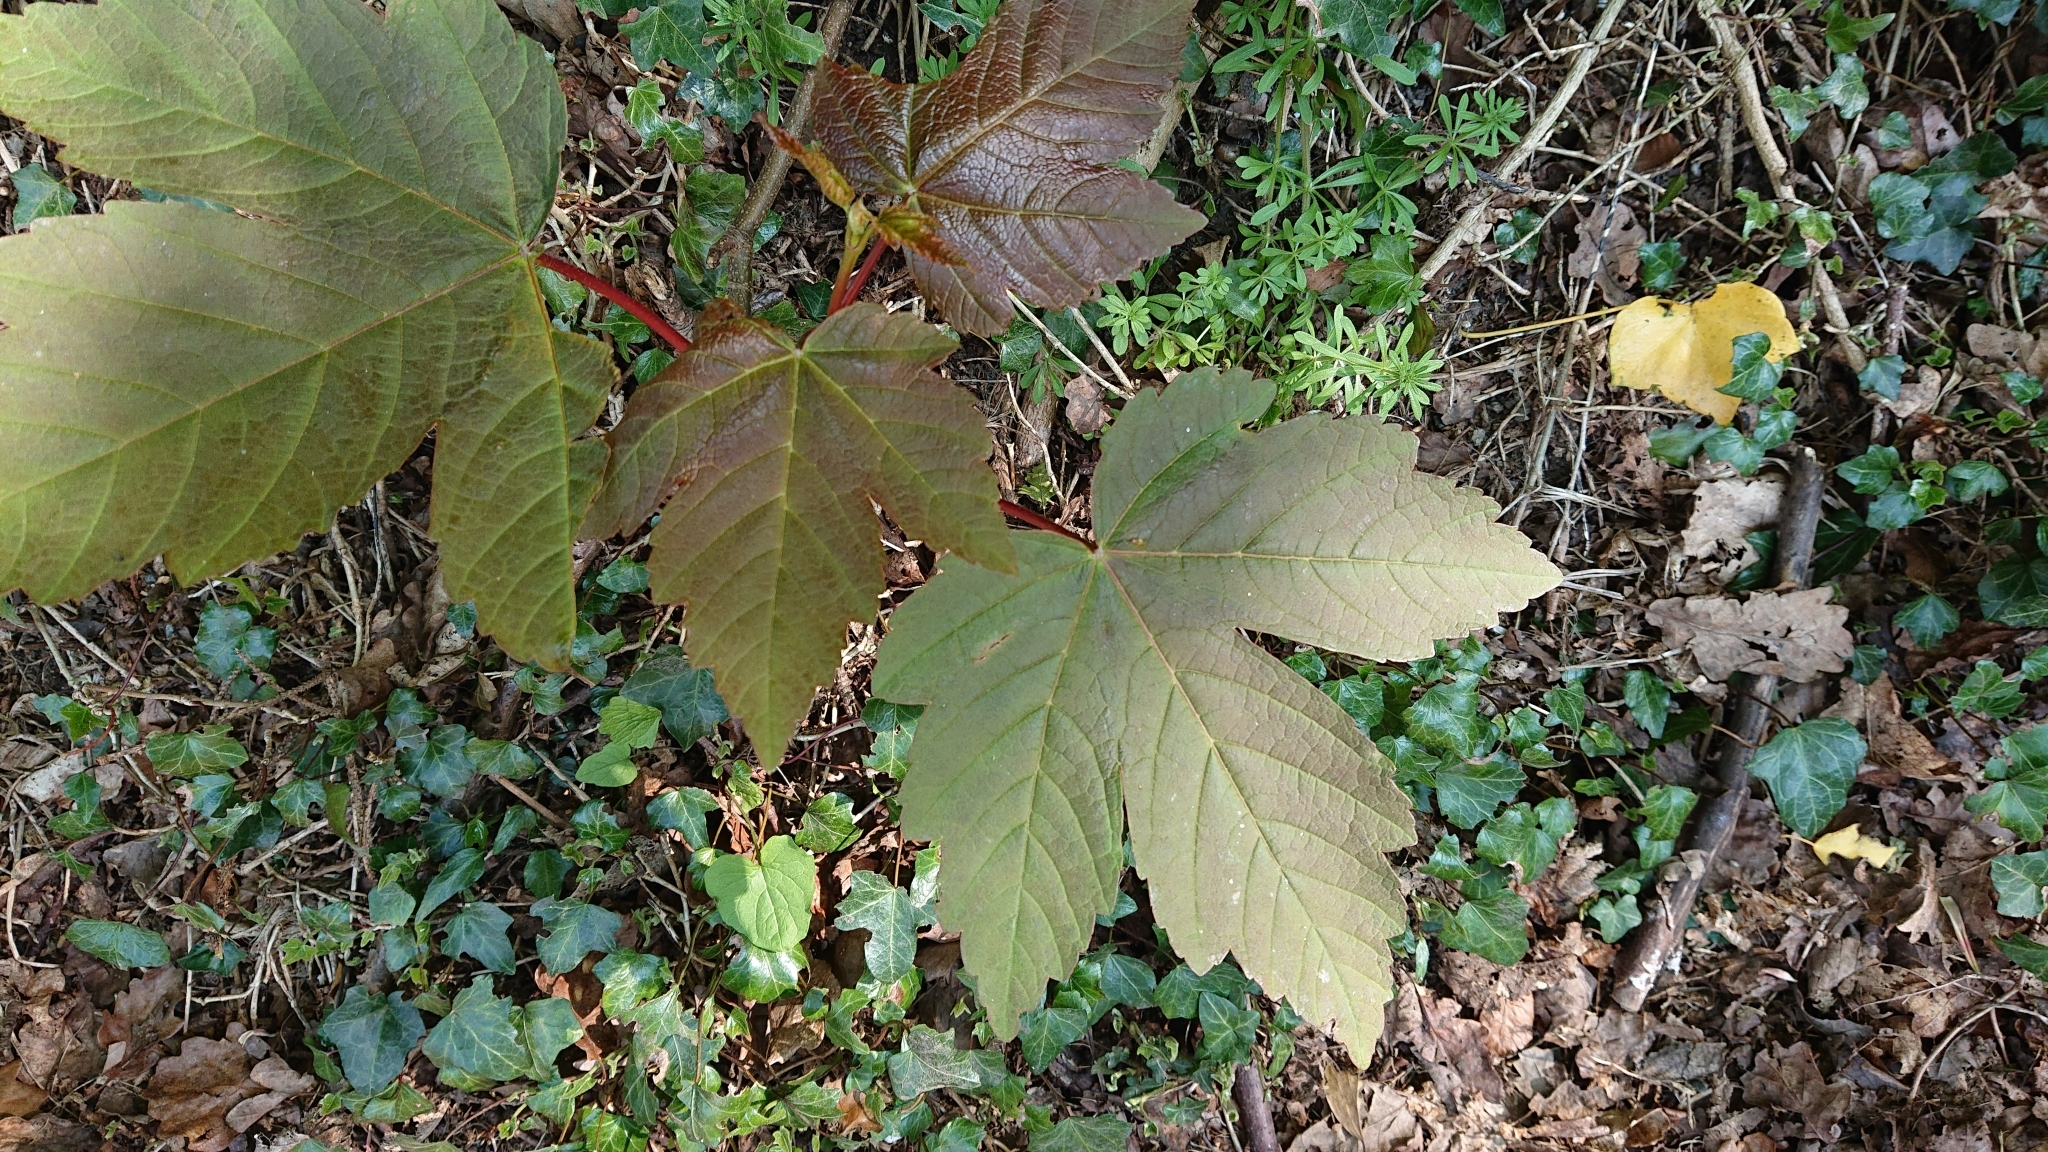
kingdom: Plantae
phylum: Tracheophyta
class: Magnoliopsida
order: Sapindales
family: Sapindaceae
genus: Acer
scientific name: Acer pseudoplatanus
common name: Sycamore
